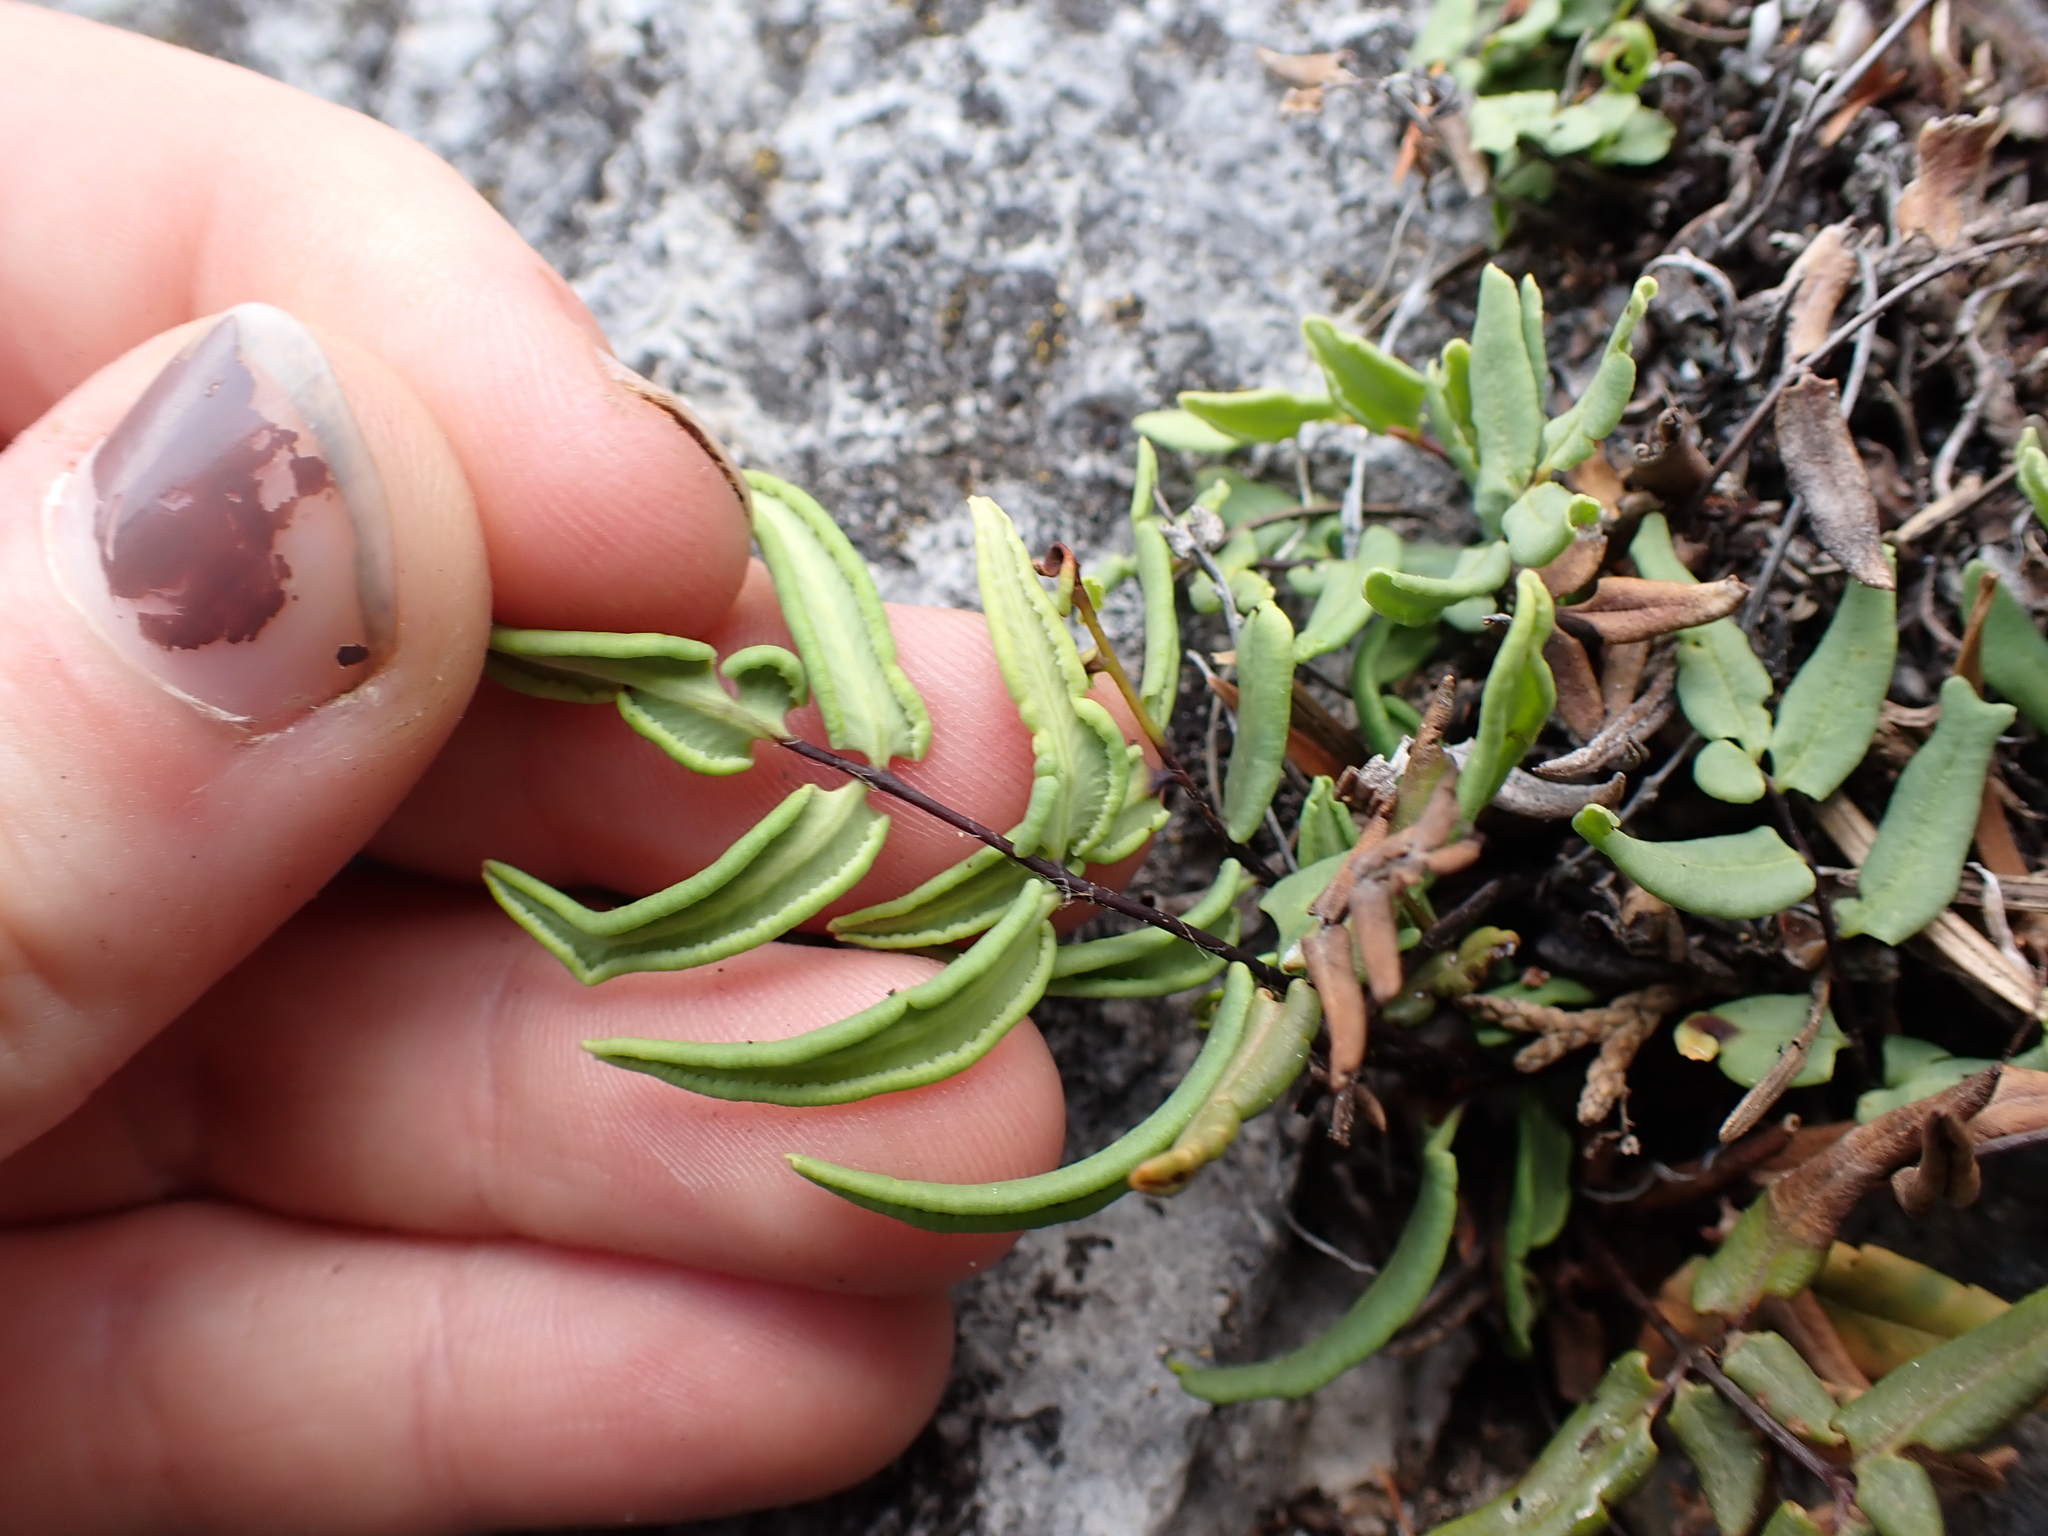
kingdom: Plantae
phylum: Tracheophyta
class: Polypodiopsida
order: Polypodiales
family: Pteridaceae
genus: Pellaea
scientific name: Pellaea glabella
